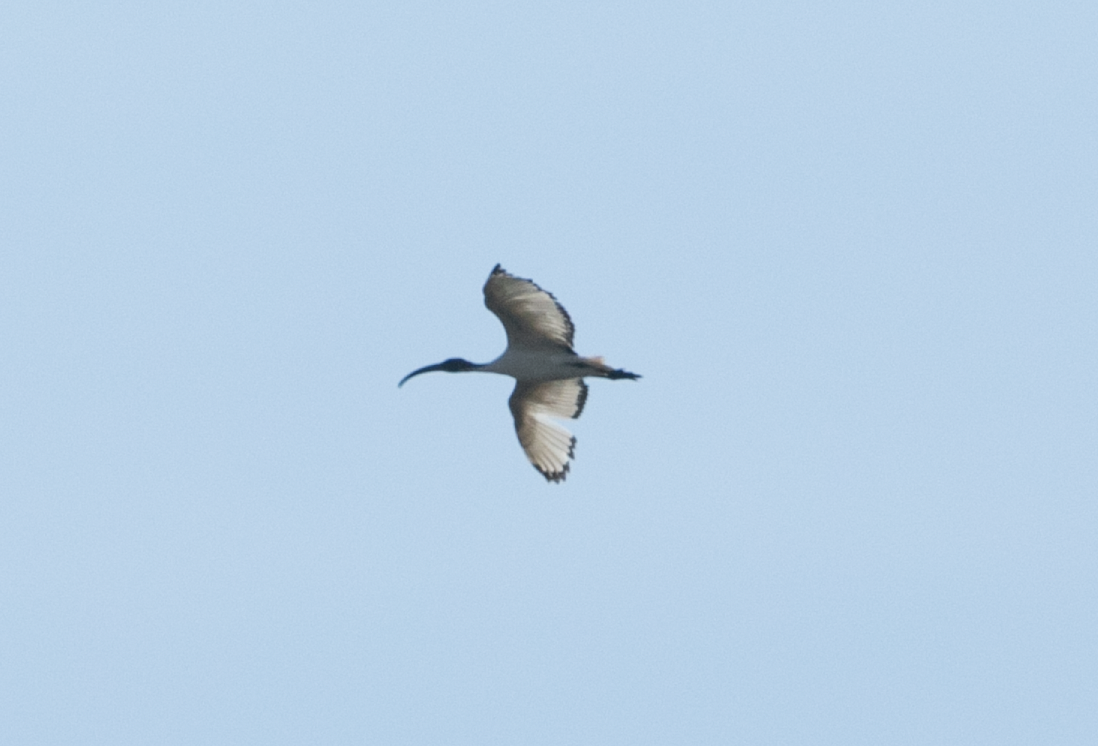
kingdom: Animalia
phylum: Chordata
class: Aves
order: Pelecaniformes
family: Threskiornithidae
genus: Threskiornis
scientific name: Threskiornis aethiopicus
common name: Sacred ibis
